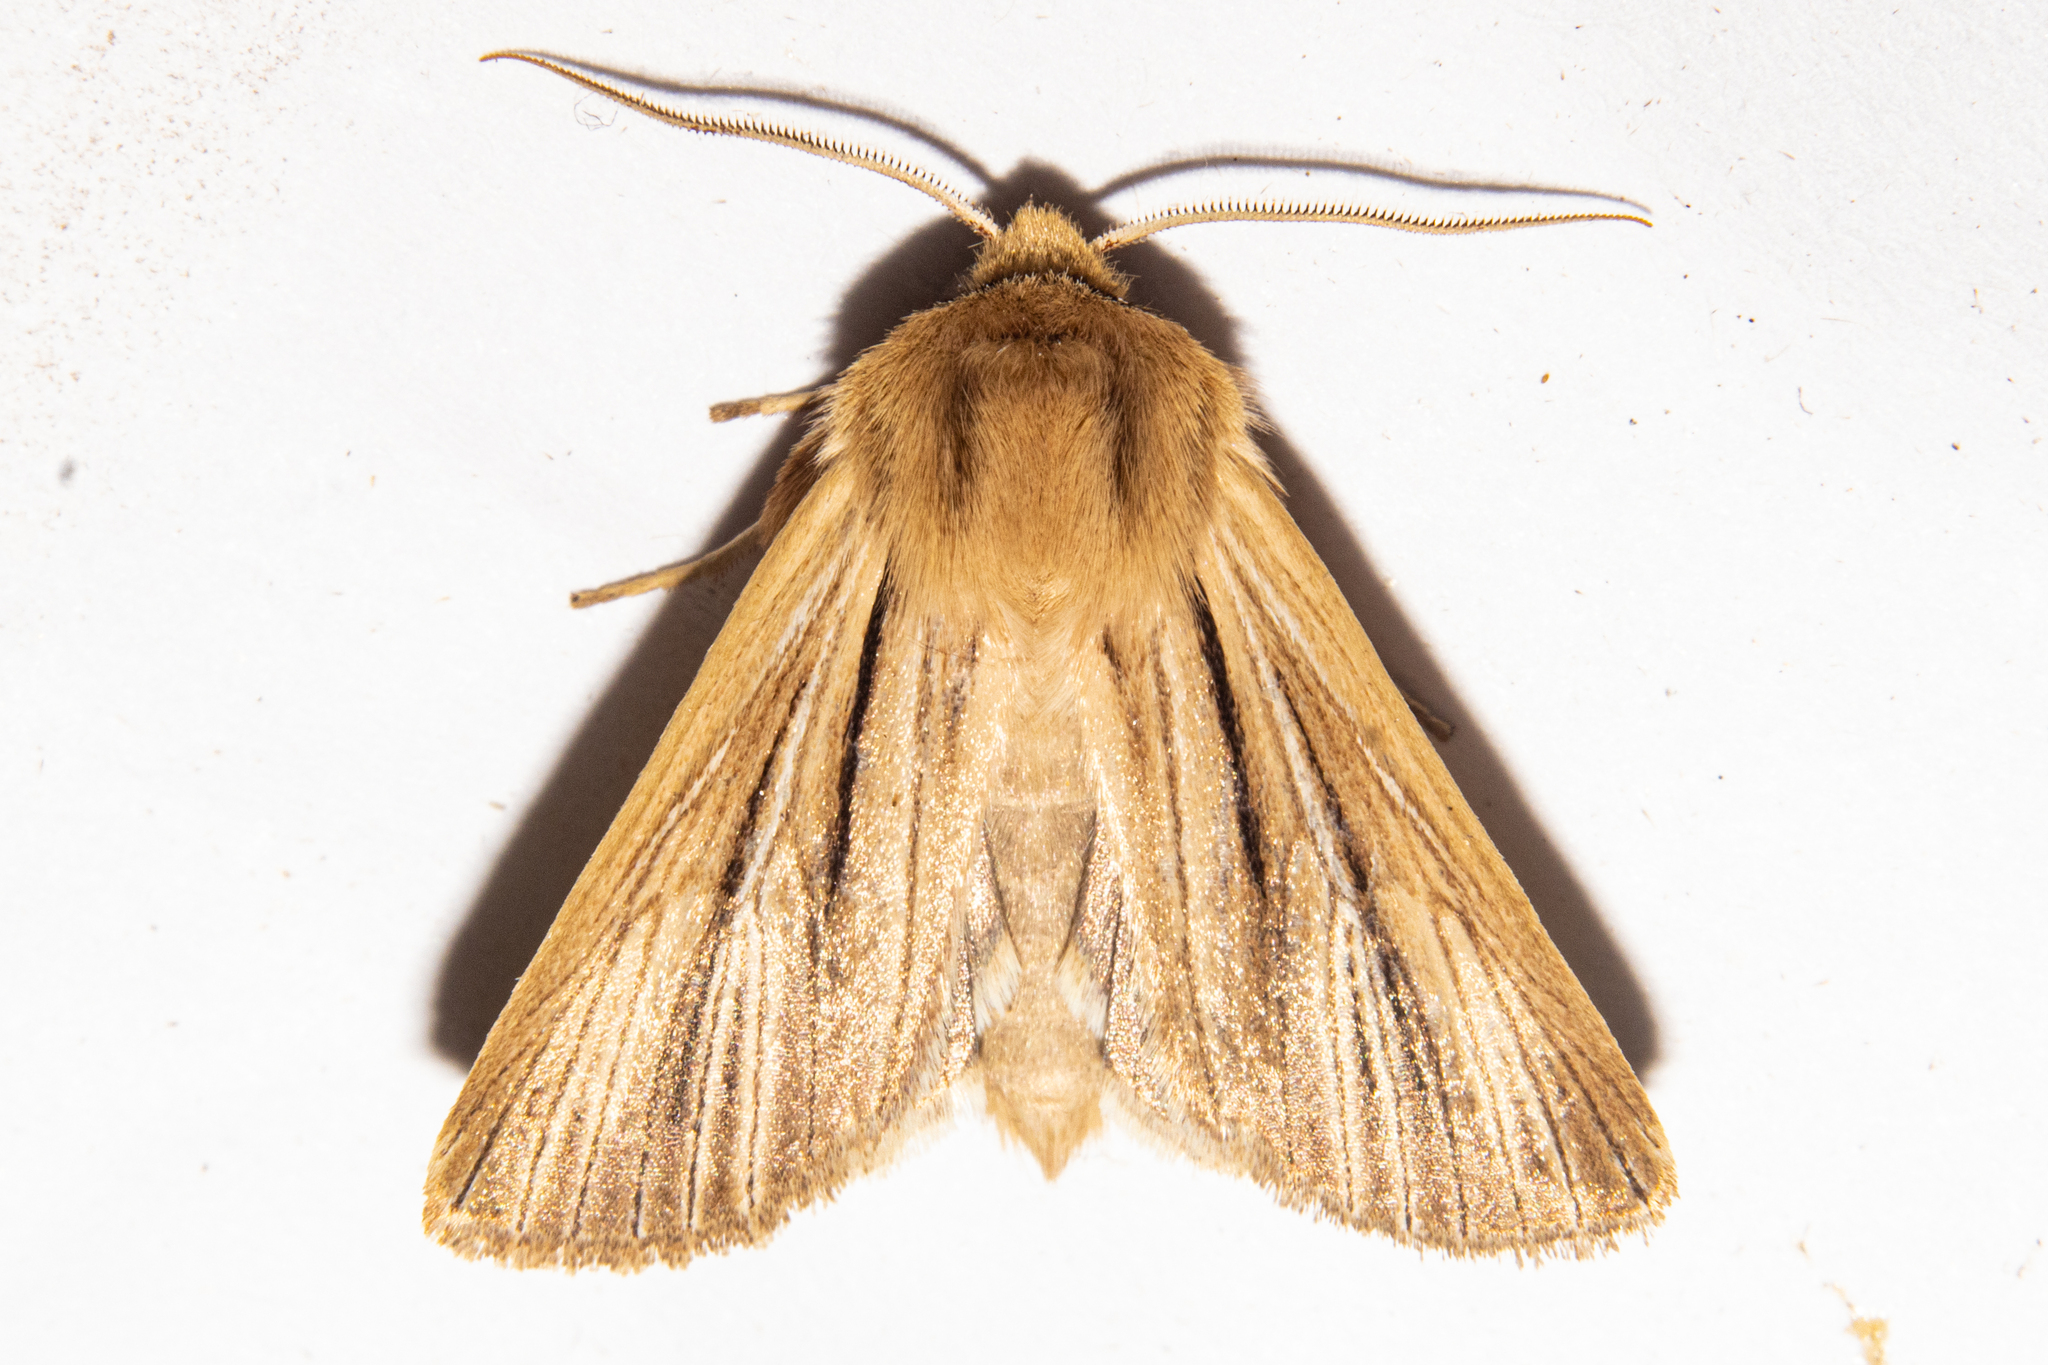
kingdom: Animalia
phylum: Arthropoda
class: Insecta
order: Lepidoptera
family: Noctuidae
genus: Ichneutica
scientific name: Ichneutica
